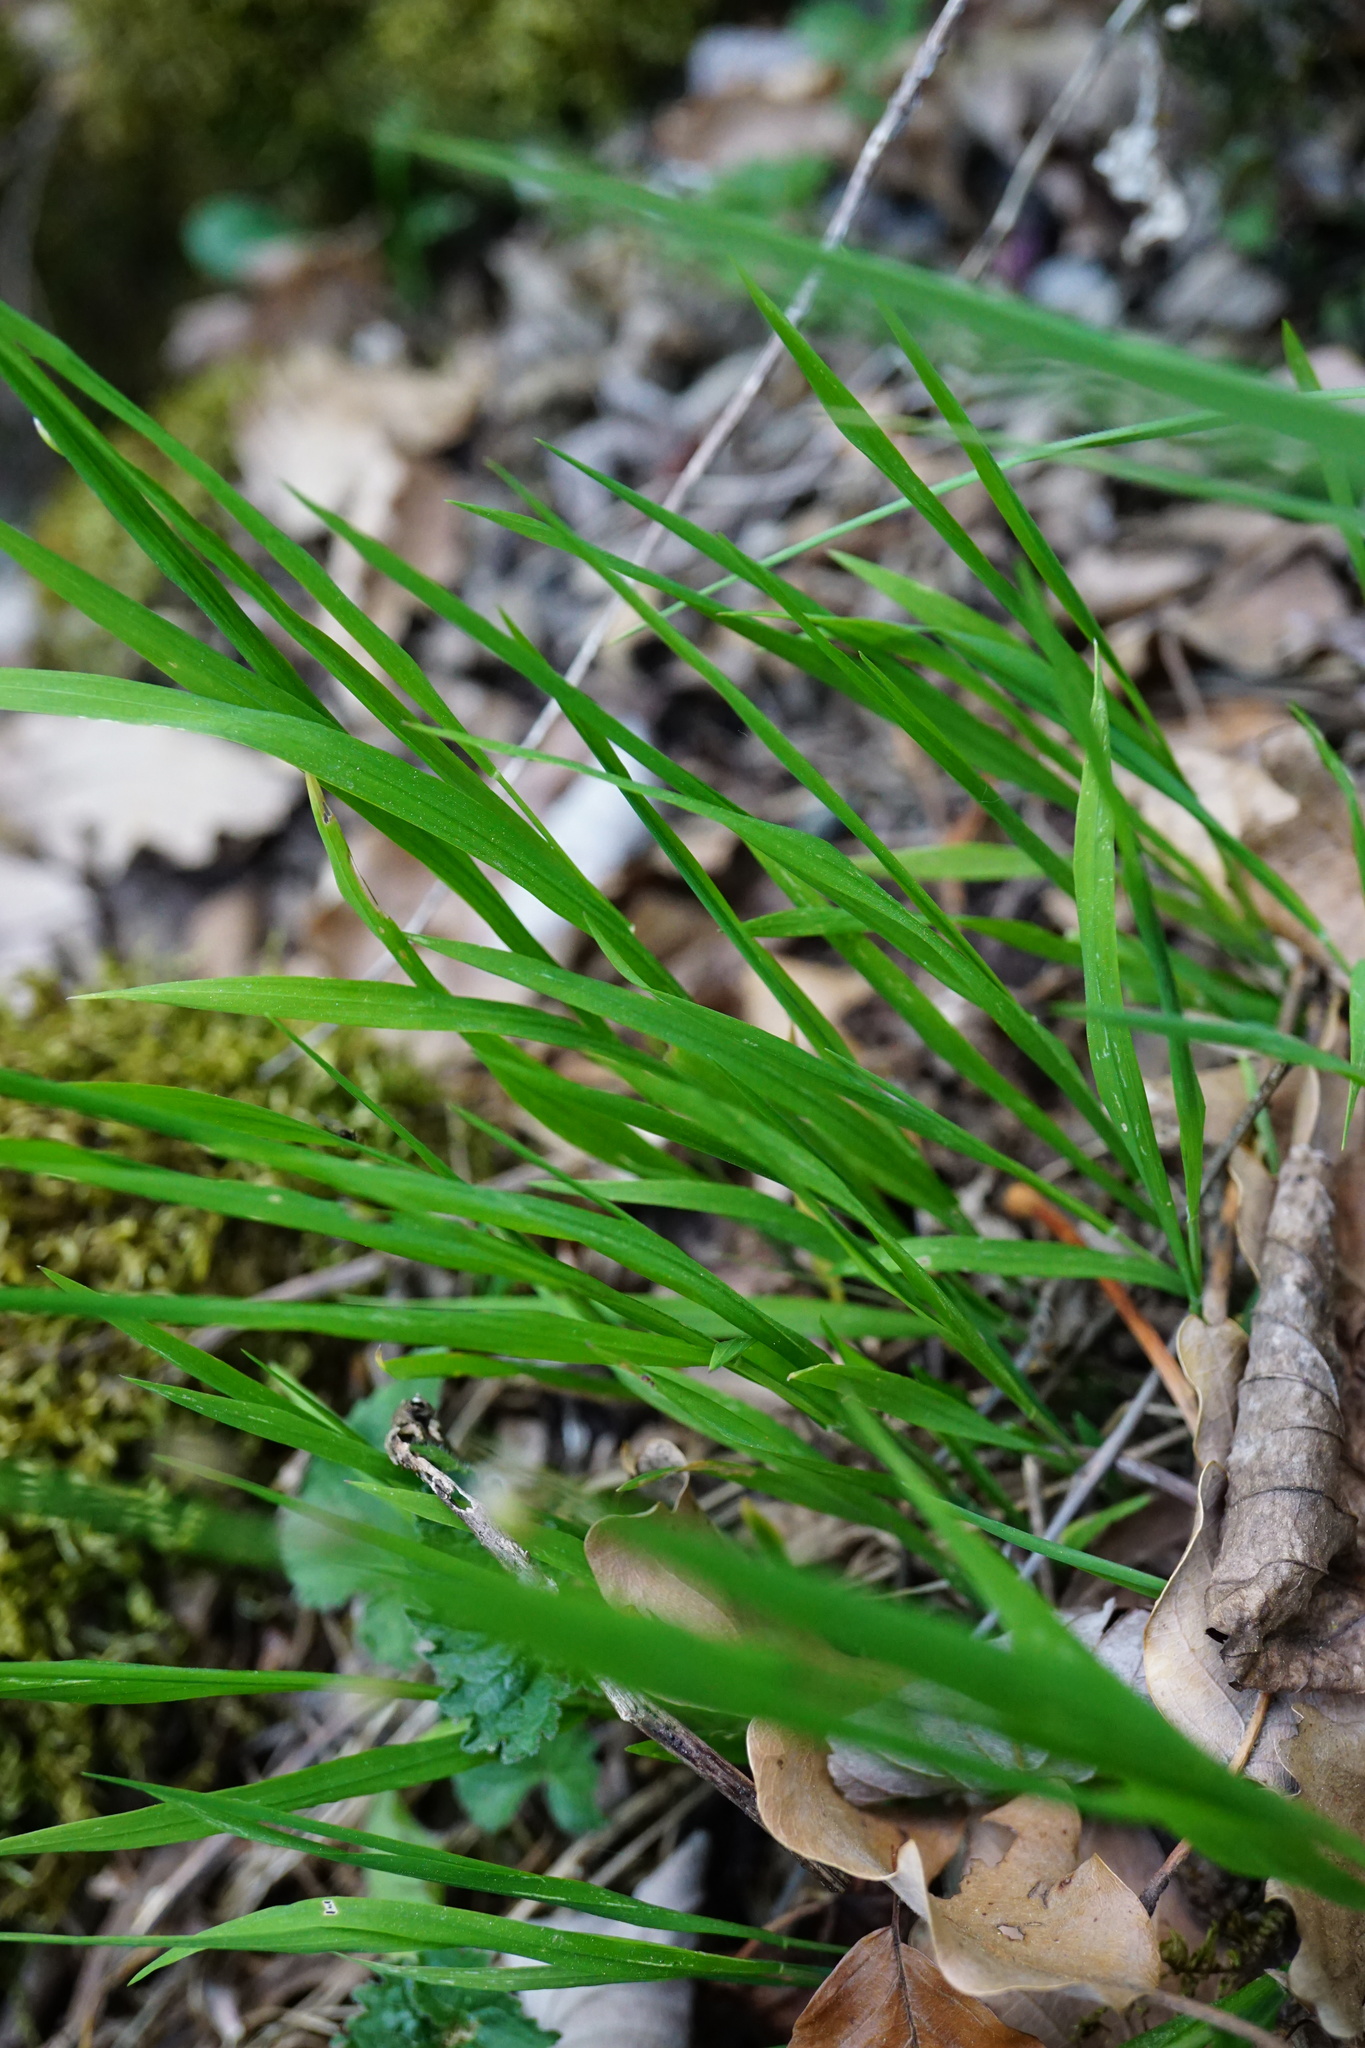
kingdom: Plantae
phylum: Tracheophyta
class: Liliopsida
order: Poales
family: Poaceae
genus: Melica
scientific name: Melica uniflora
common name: Wood melick
